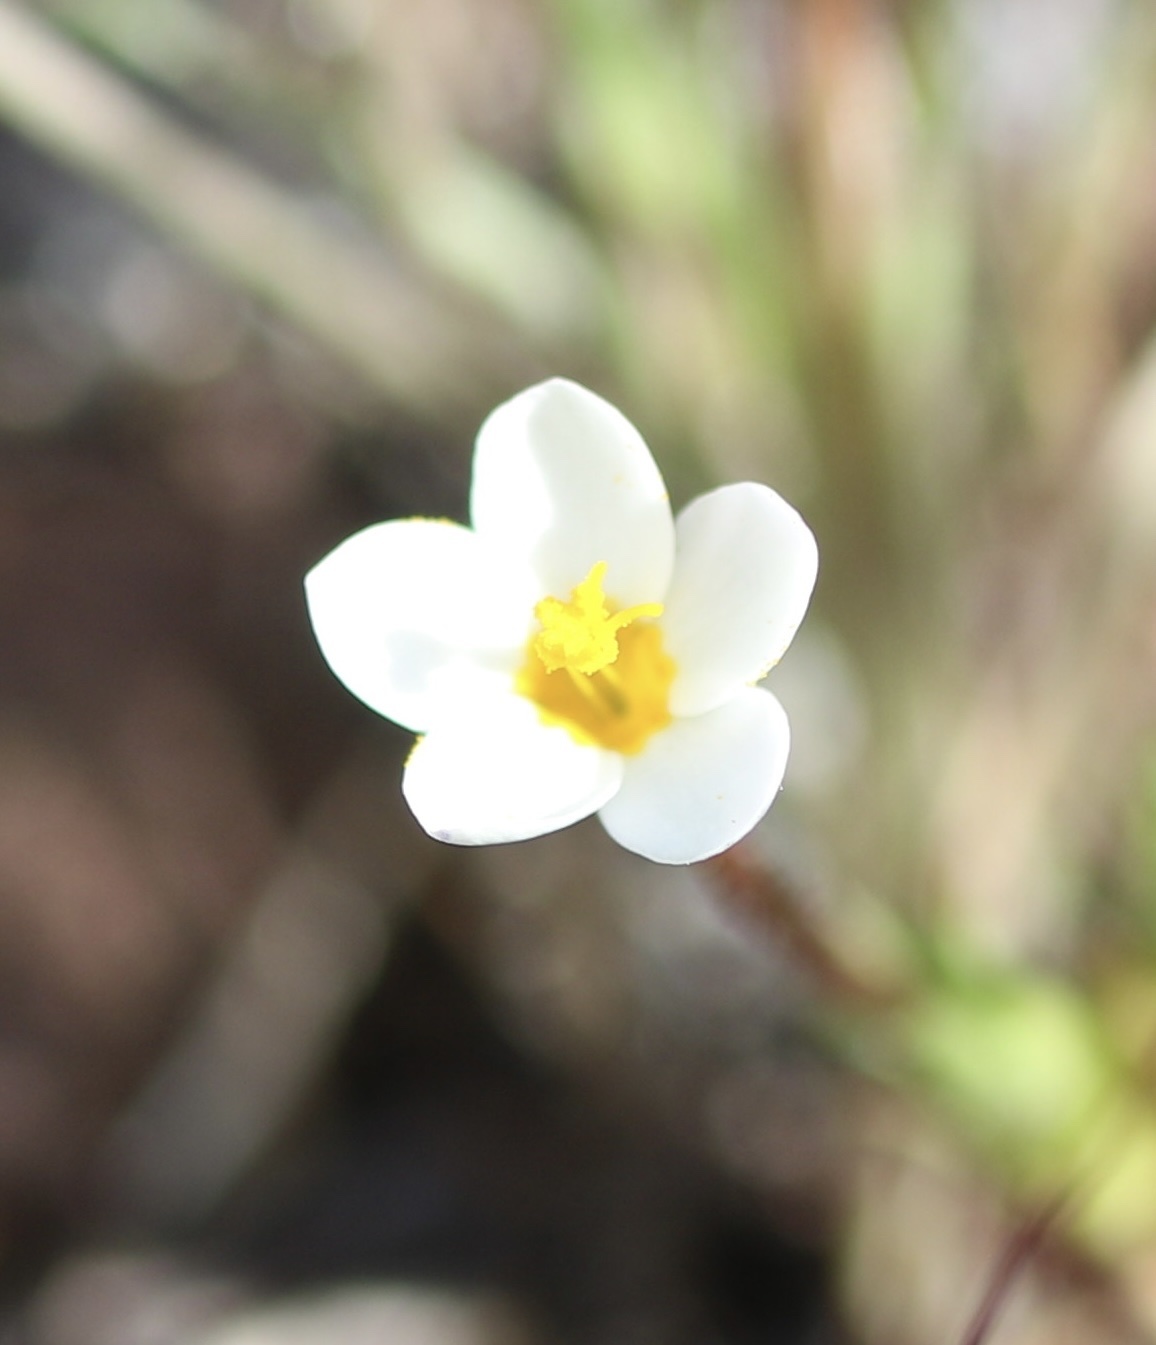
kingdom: Plantae
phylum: Tracheophyta
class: Magnoliopsida
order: Ericales
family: Polemoniaceae
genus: Leptosiphon
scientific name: Leptosiphon bicolor
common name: True babystars
